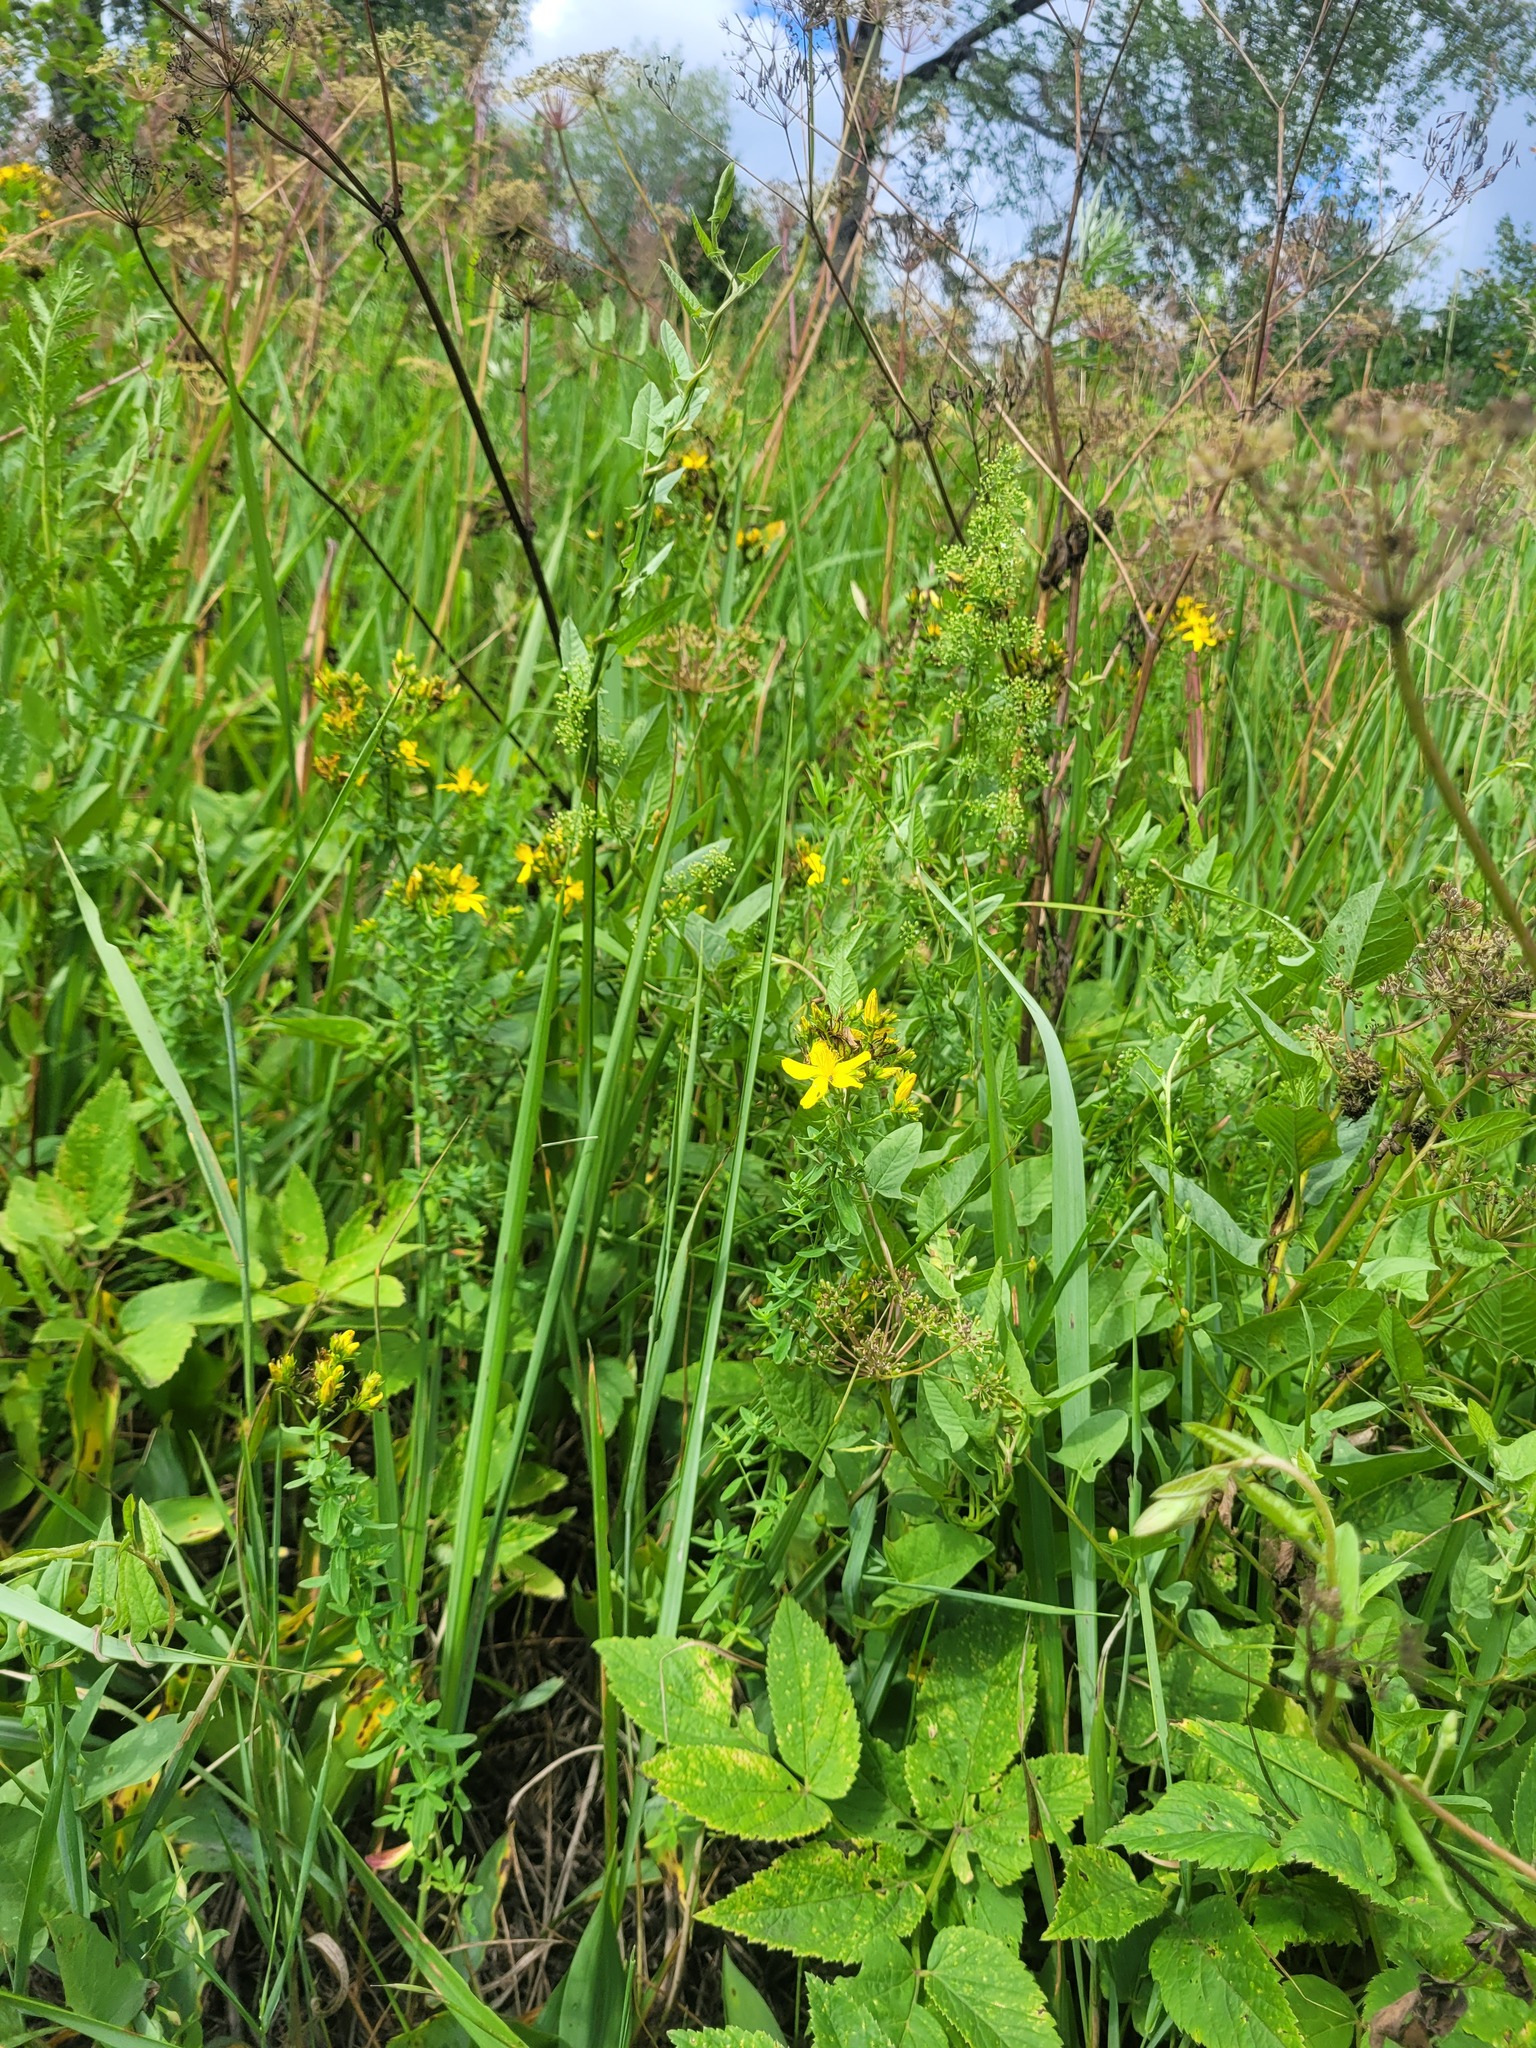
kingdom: Plantae
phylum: Tracheophyta
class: Magnoliopsida
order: Malpighiales
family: Hypericaceae
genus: Hypericum
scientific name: Hypericum perforatum
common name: Common st. johnswort
